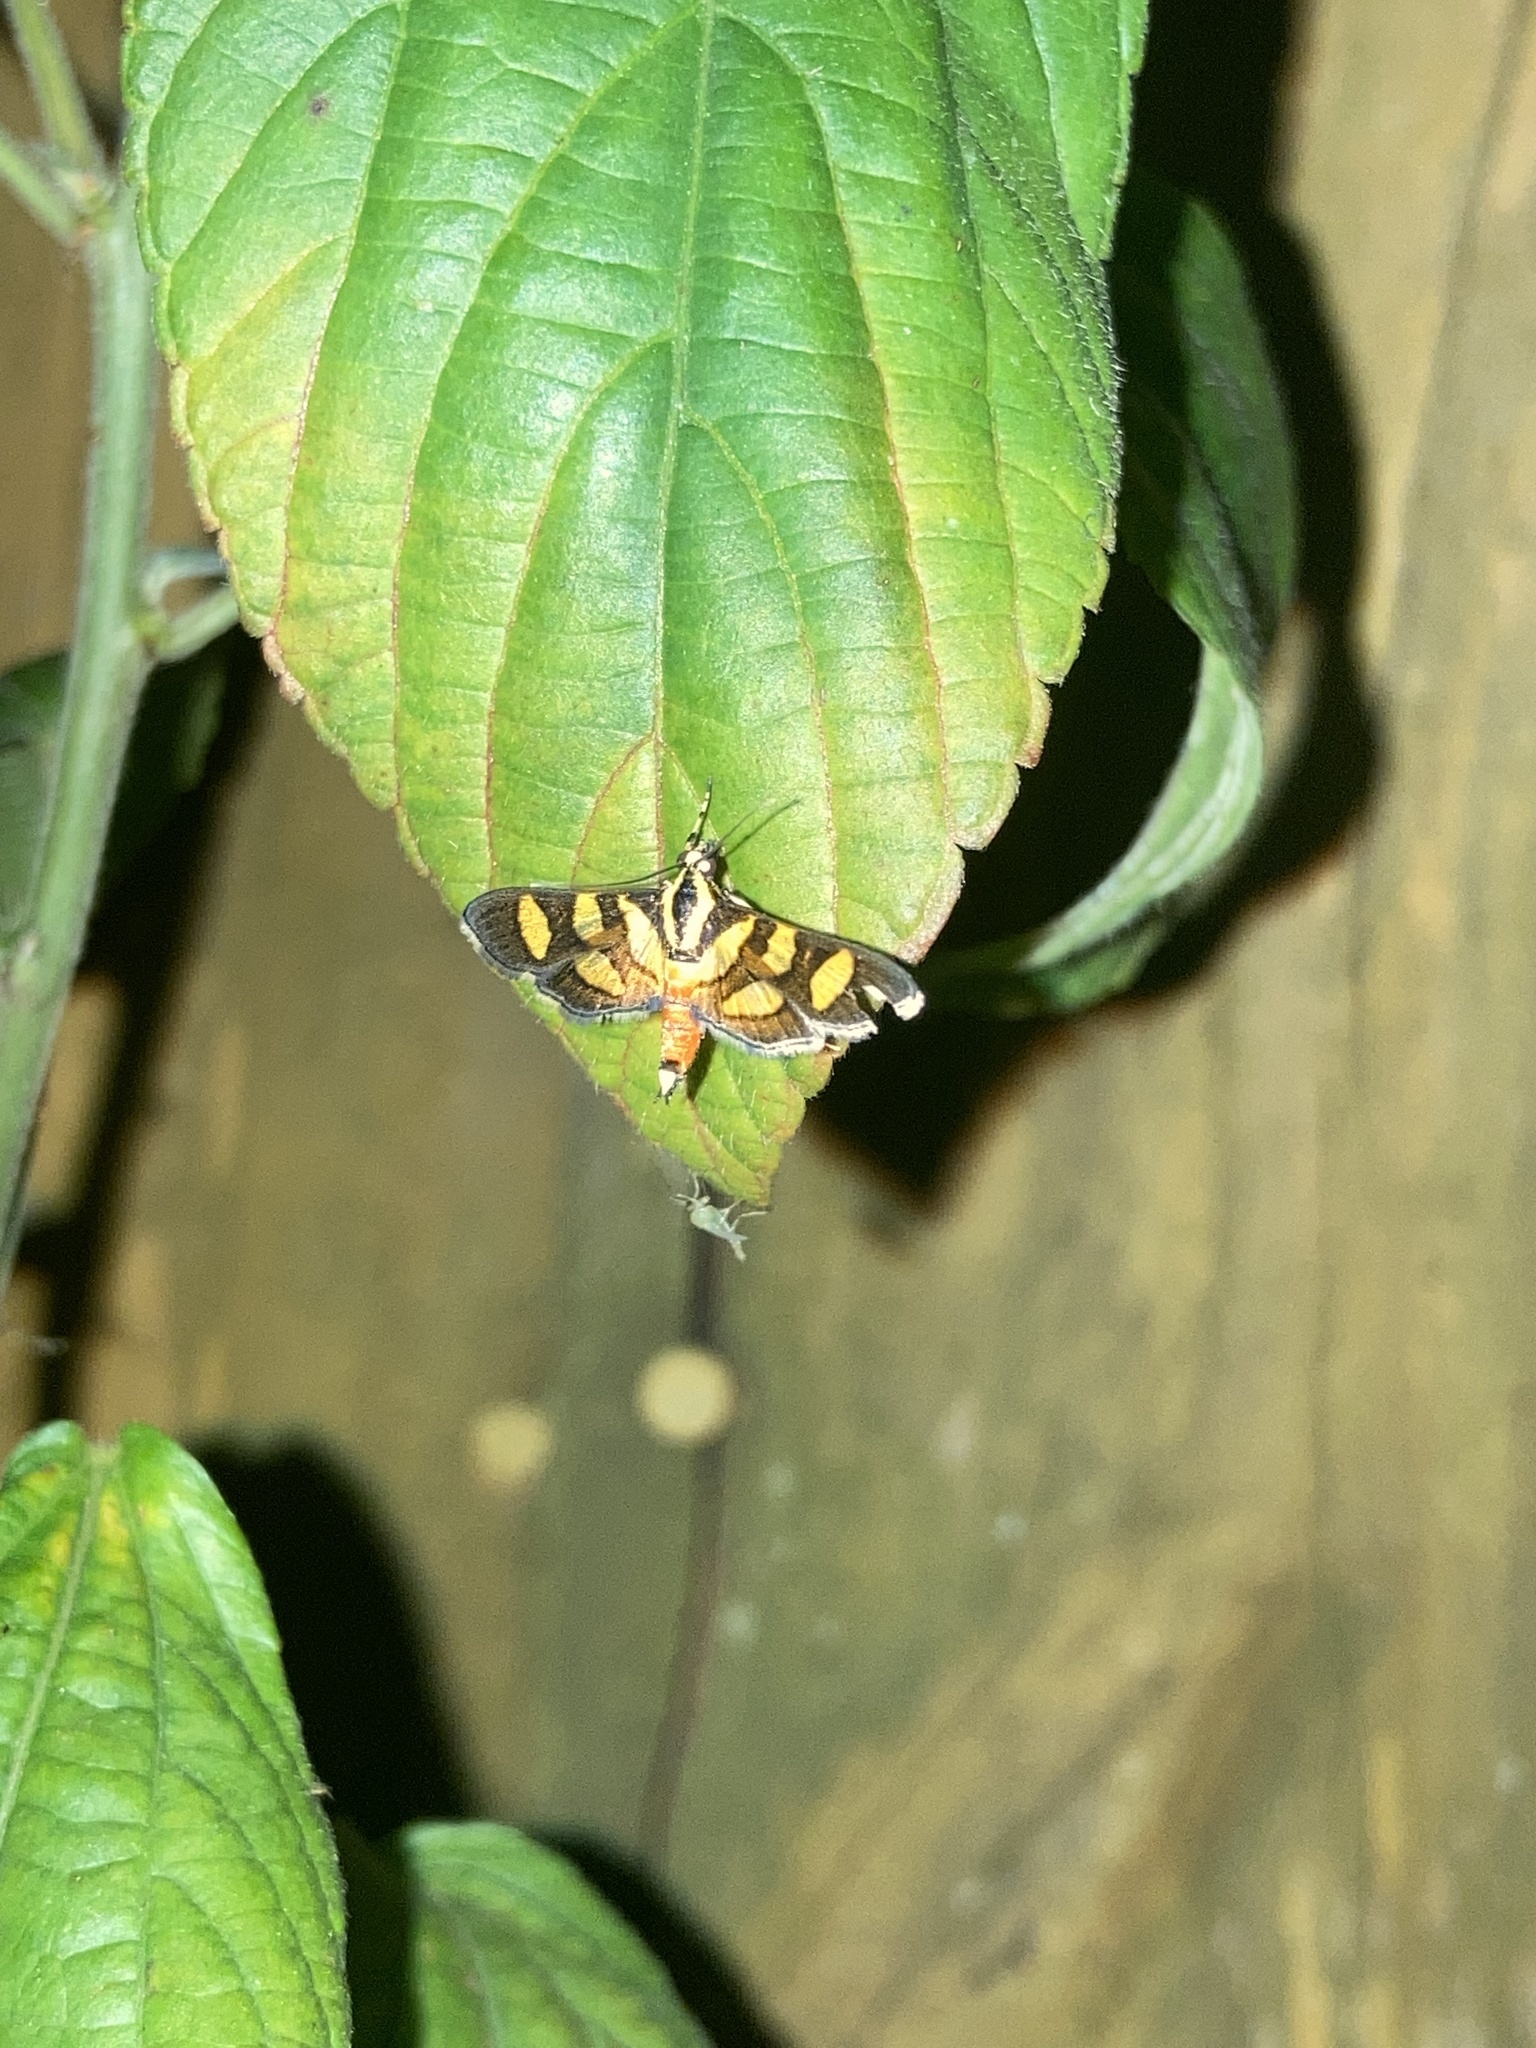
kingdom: Animalia
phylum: Arthropoda
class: Insecta
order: Lepidoptera
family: Crambidae
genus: Syngamia
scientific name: Syngamia florella
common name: Orange-spotted flower moth
